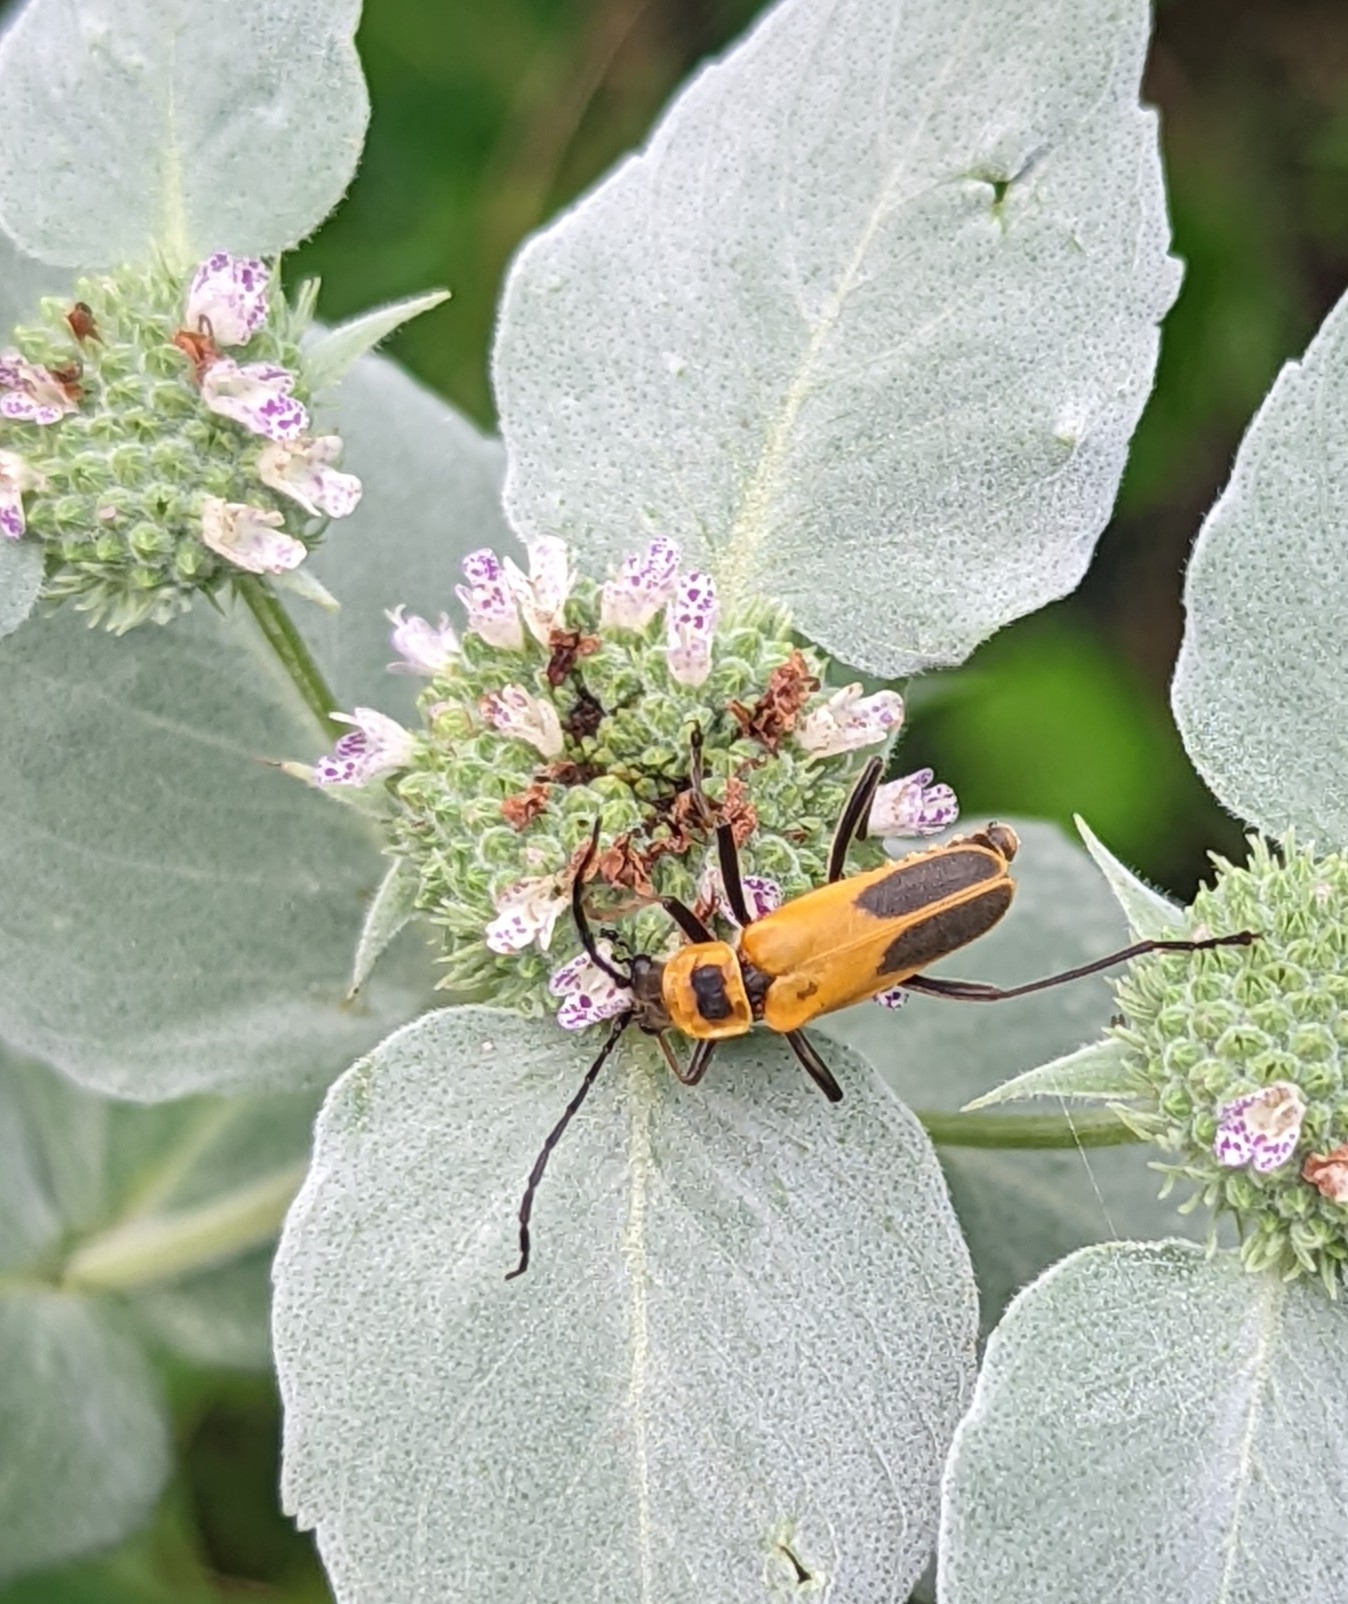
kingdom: Animalia
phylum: Arthropoda
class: Insecta
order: Coleoptera
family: Cantharidae
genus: Chauliognathus
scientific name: Chauliognathus pensylvanicus
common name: Goldenrod soldier beetle
